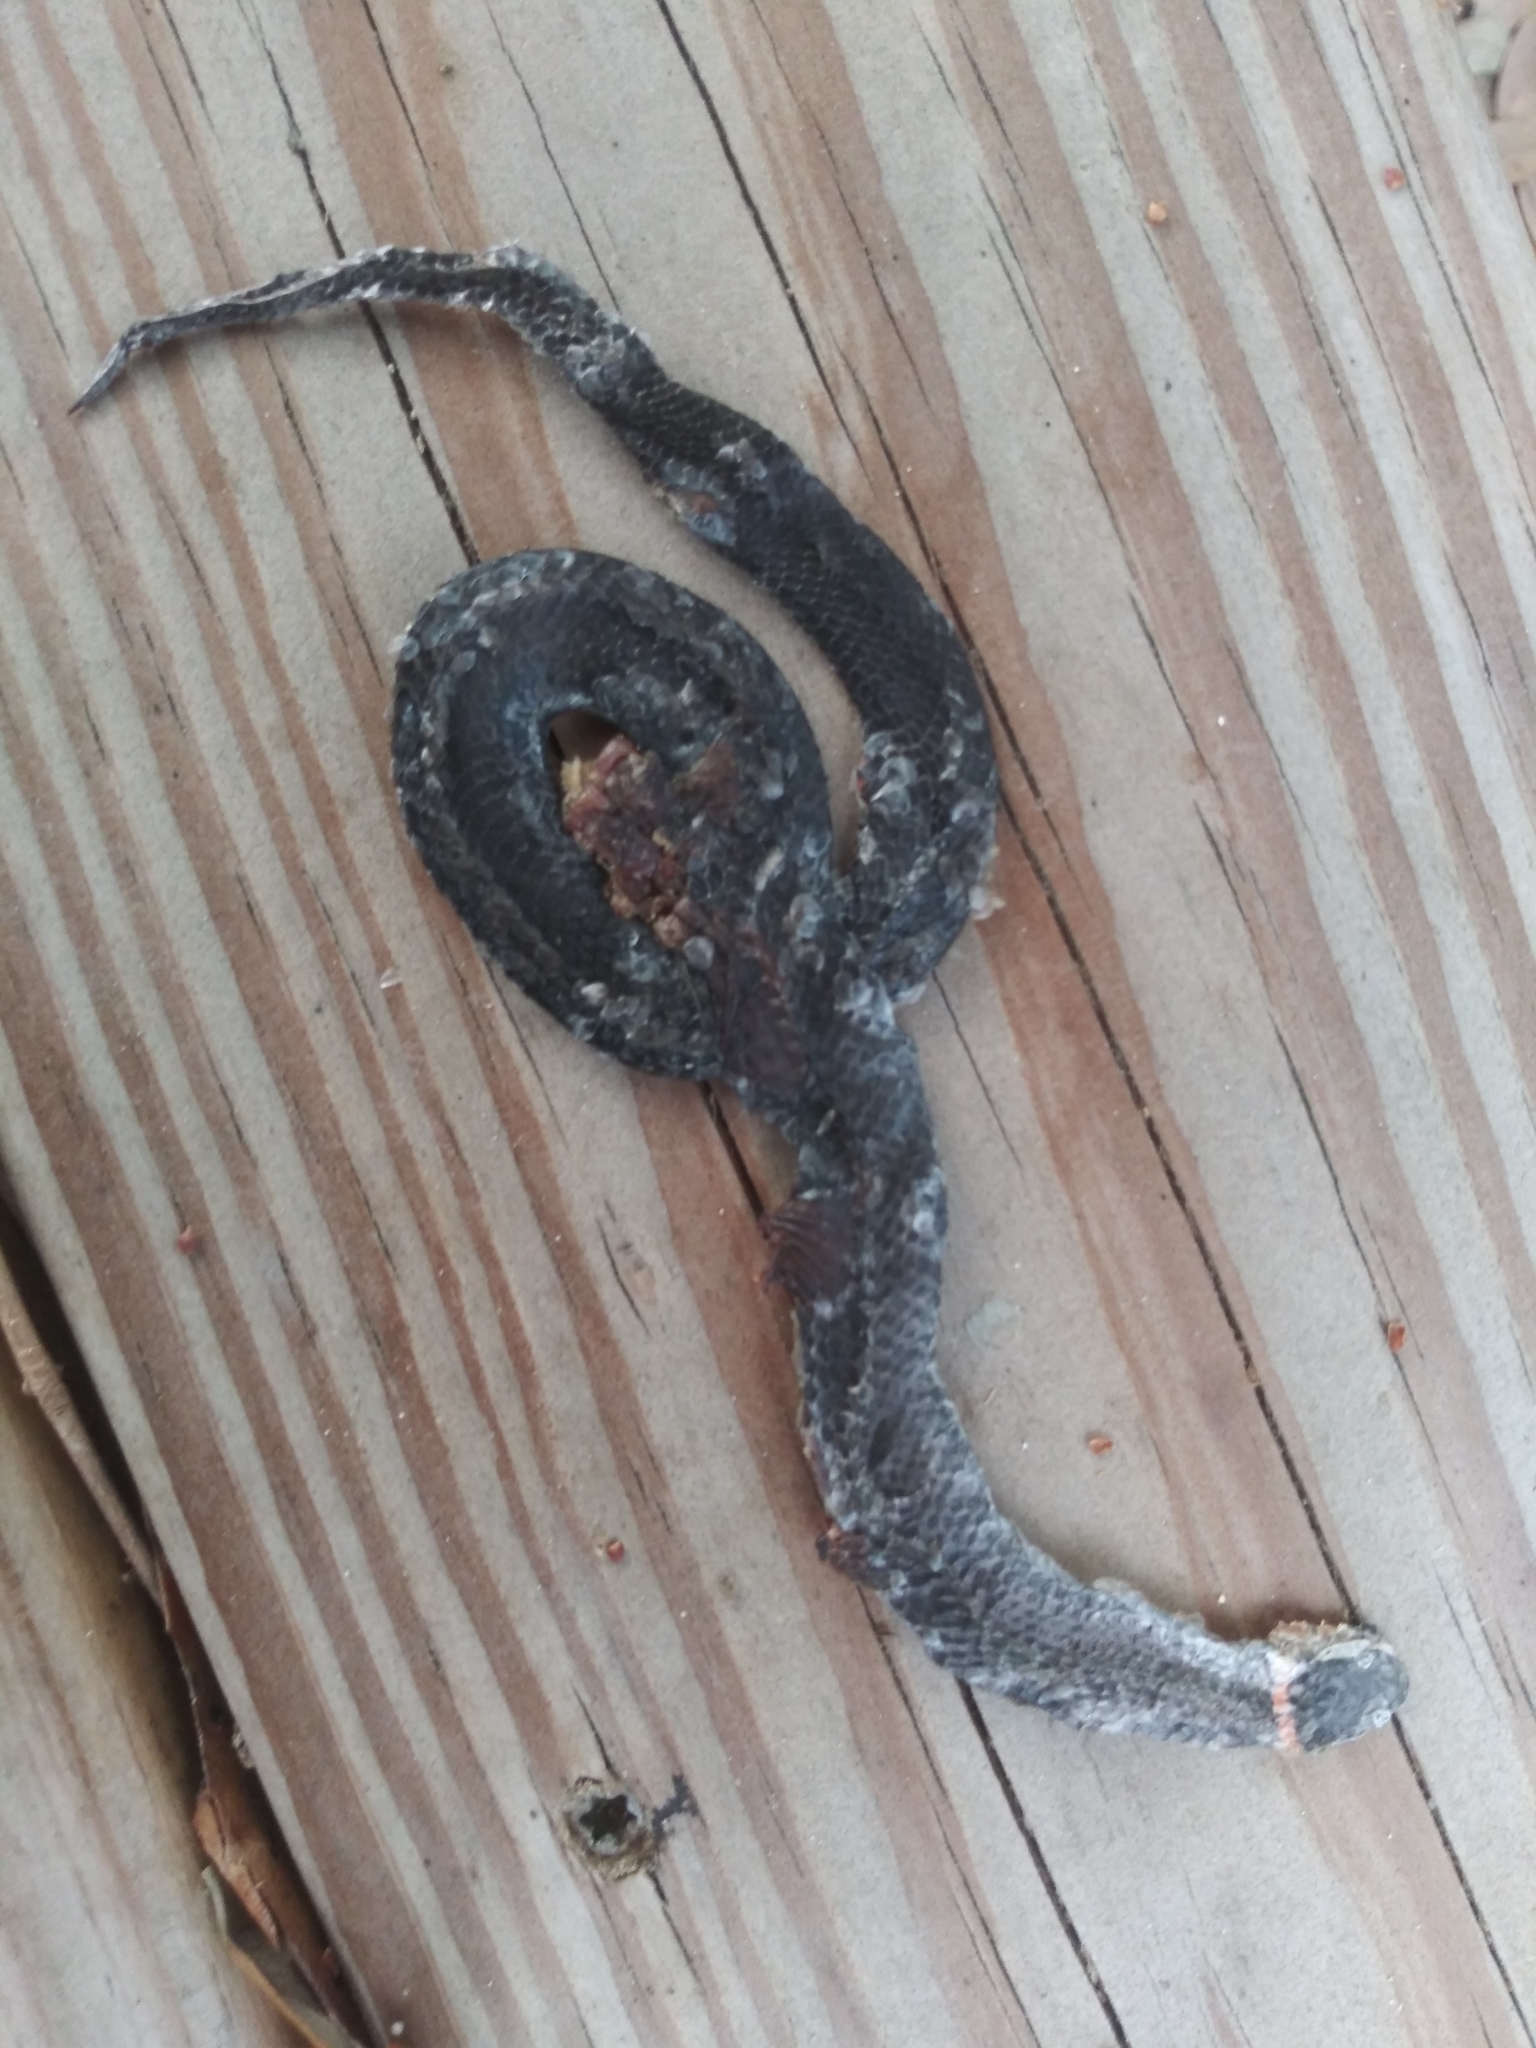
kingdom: Animalia
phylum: Chordata
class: Squamata
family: Colubridae
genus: Diadophis
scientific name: Diadophis punctatus
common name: Ringneck snake
